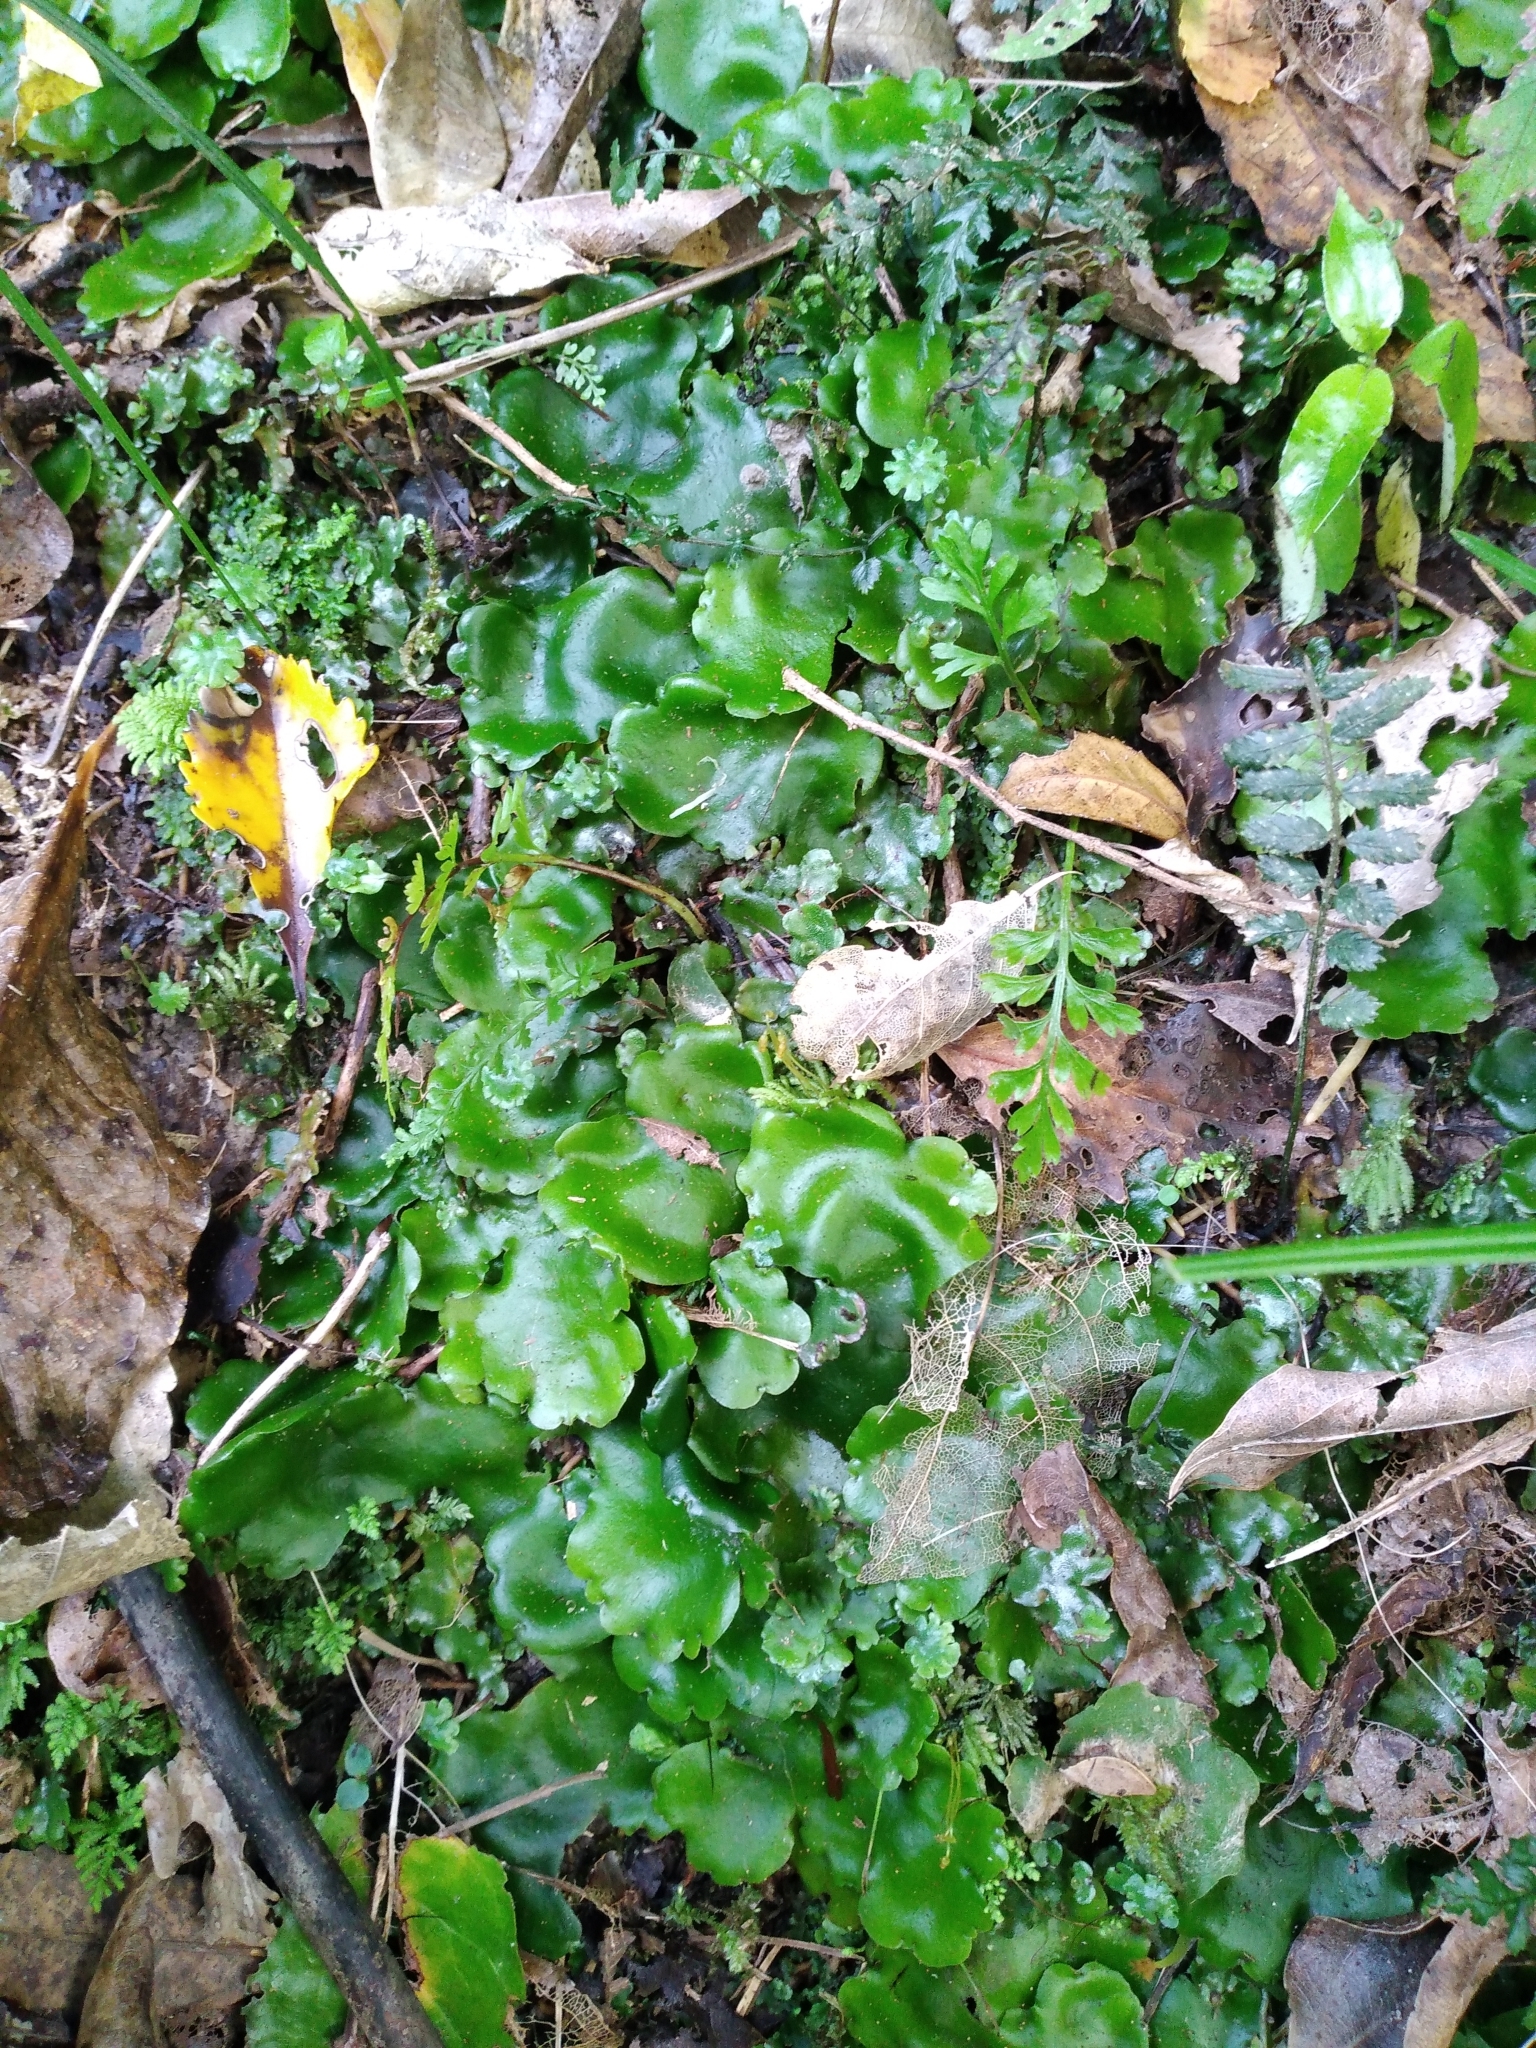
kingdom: Plantae
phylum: Marchantiophyta
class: Marchantiopsida
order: Marchantiales
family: Monocleaceae
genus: Monoclea
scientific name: Monoclea forsteri
